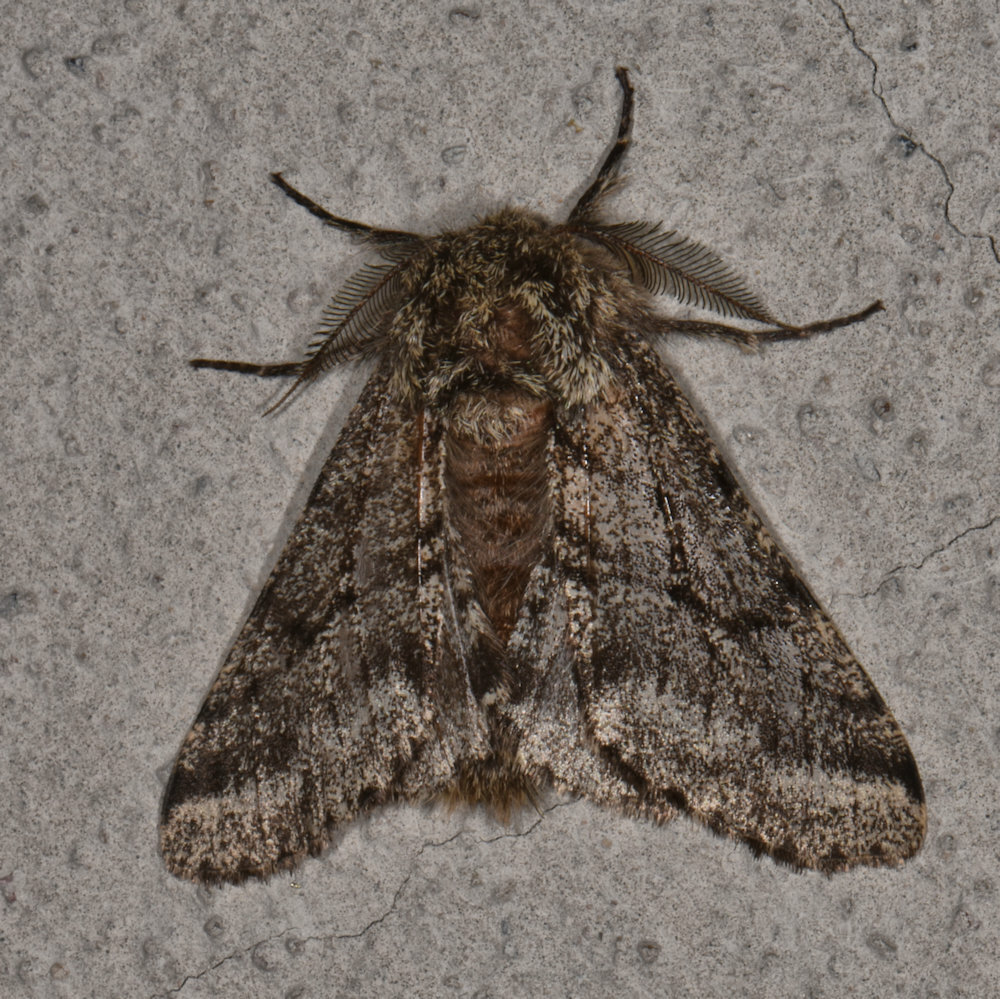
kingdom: Animalia
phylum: Arthropoda
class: Insecta
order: Lepidoptera
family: Geometridae
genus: Lycia
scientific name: Lycia ursaria
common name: Stout spanworm
